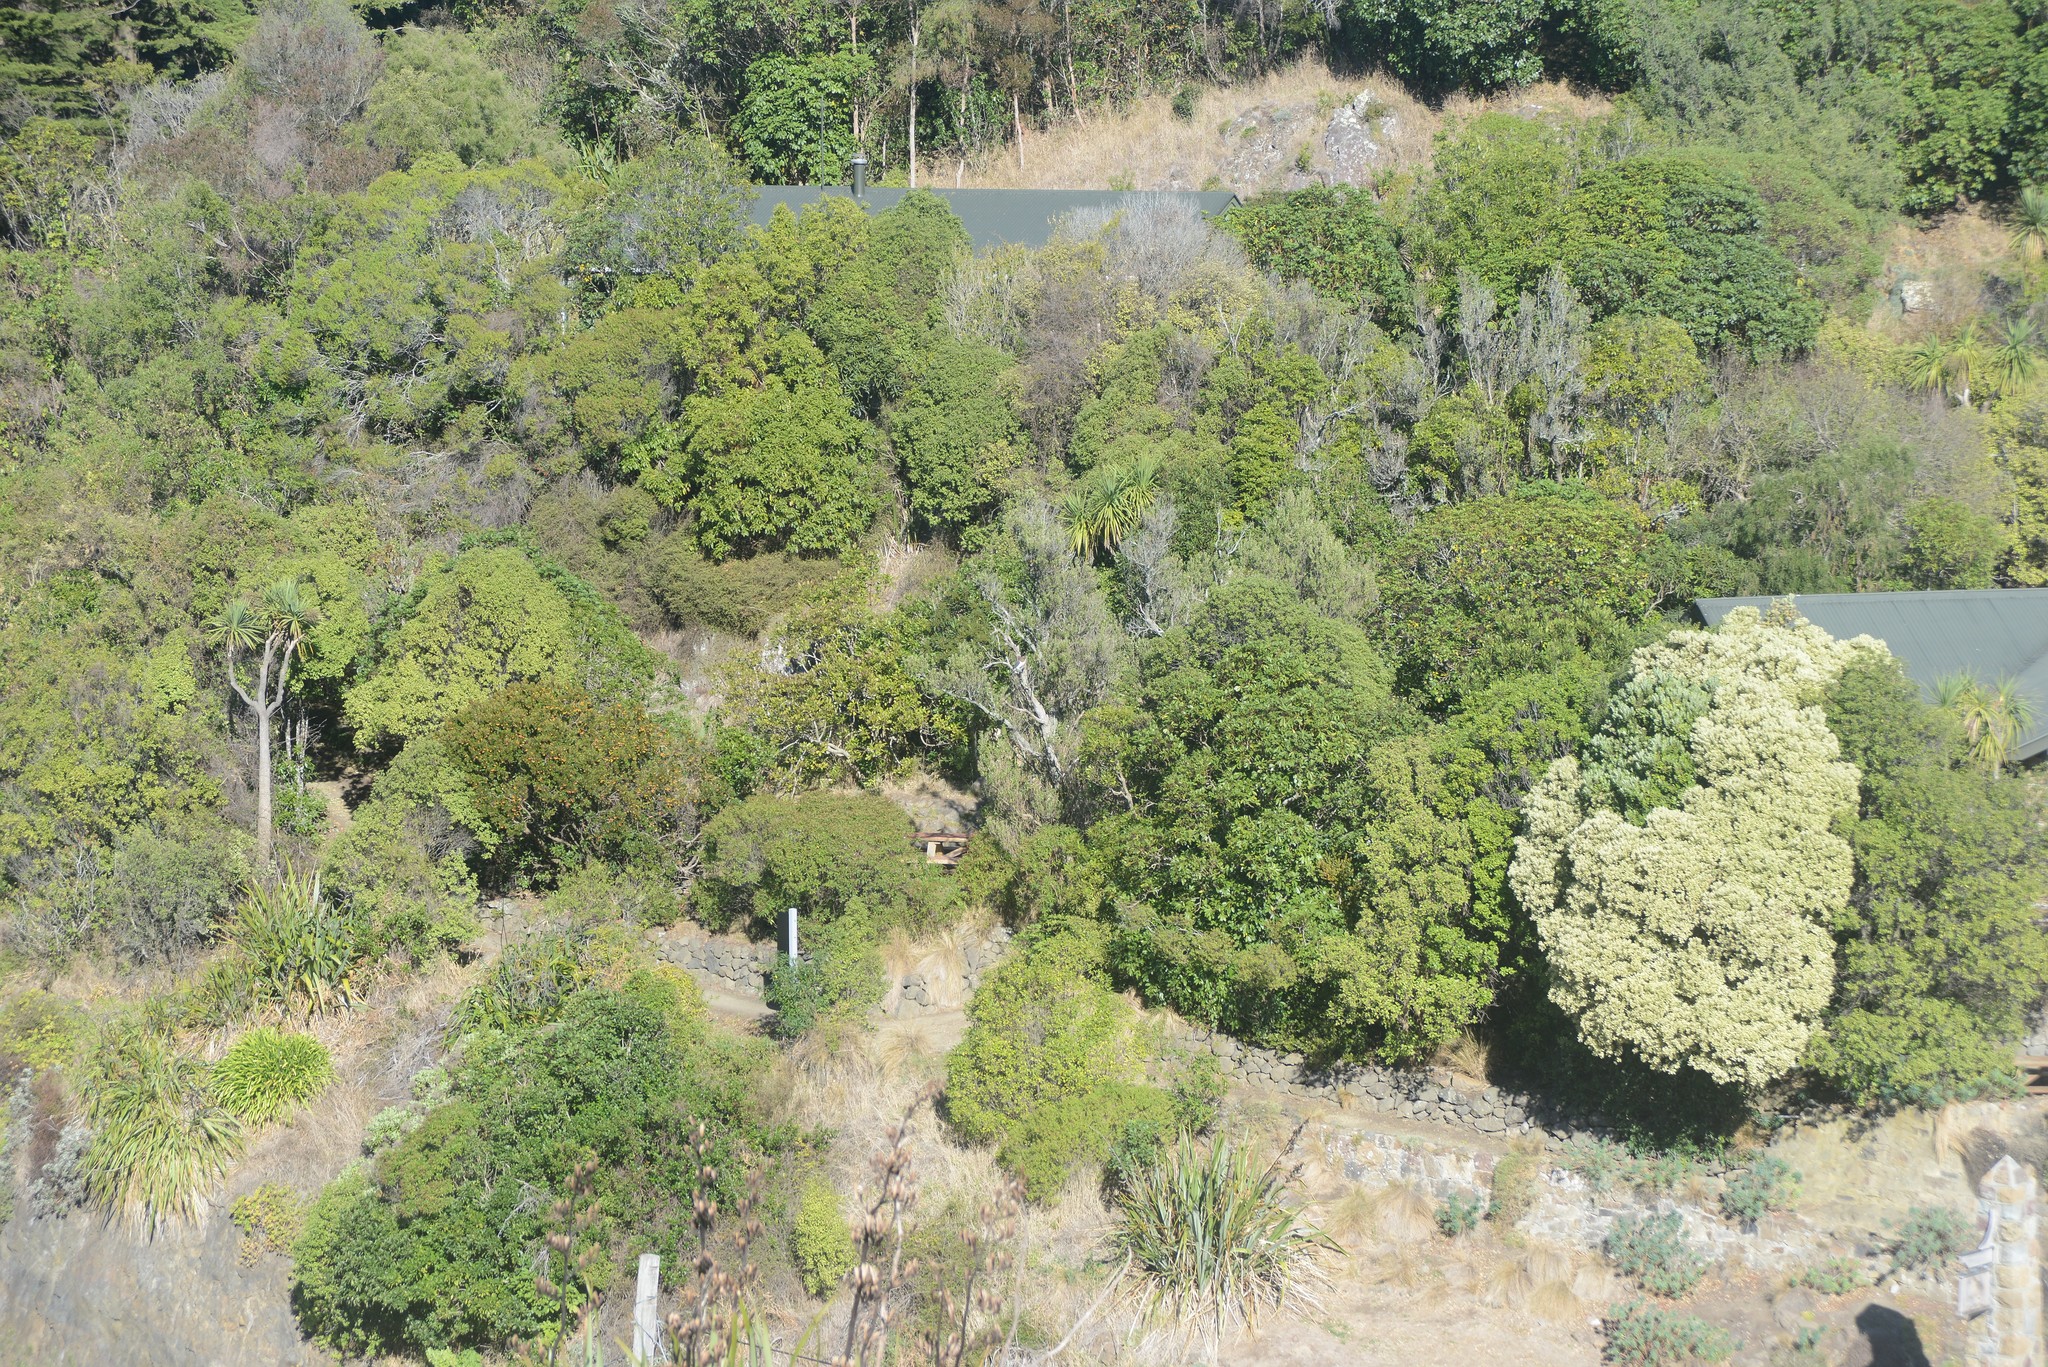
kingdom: Animalia
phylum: Chordata
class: Aves
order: Columbiformes
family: Columbidae
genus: Hemiphaga
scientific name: Hemiphaga novaeseelandiae
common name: New zealand pigeon
